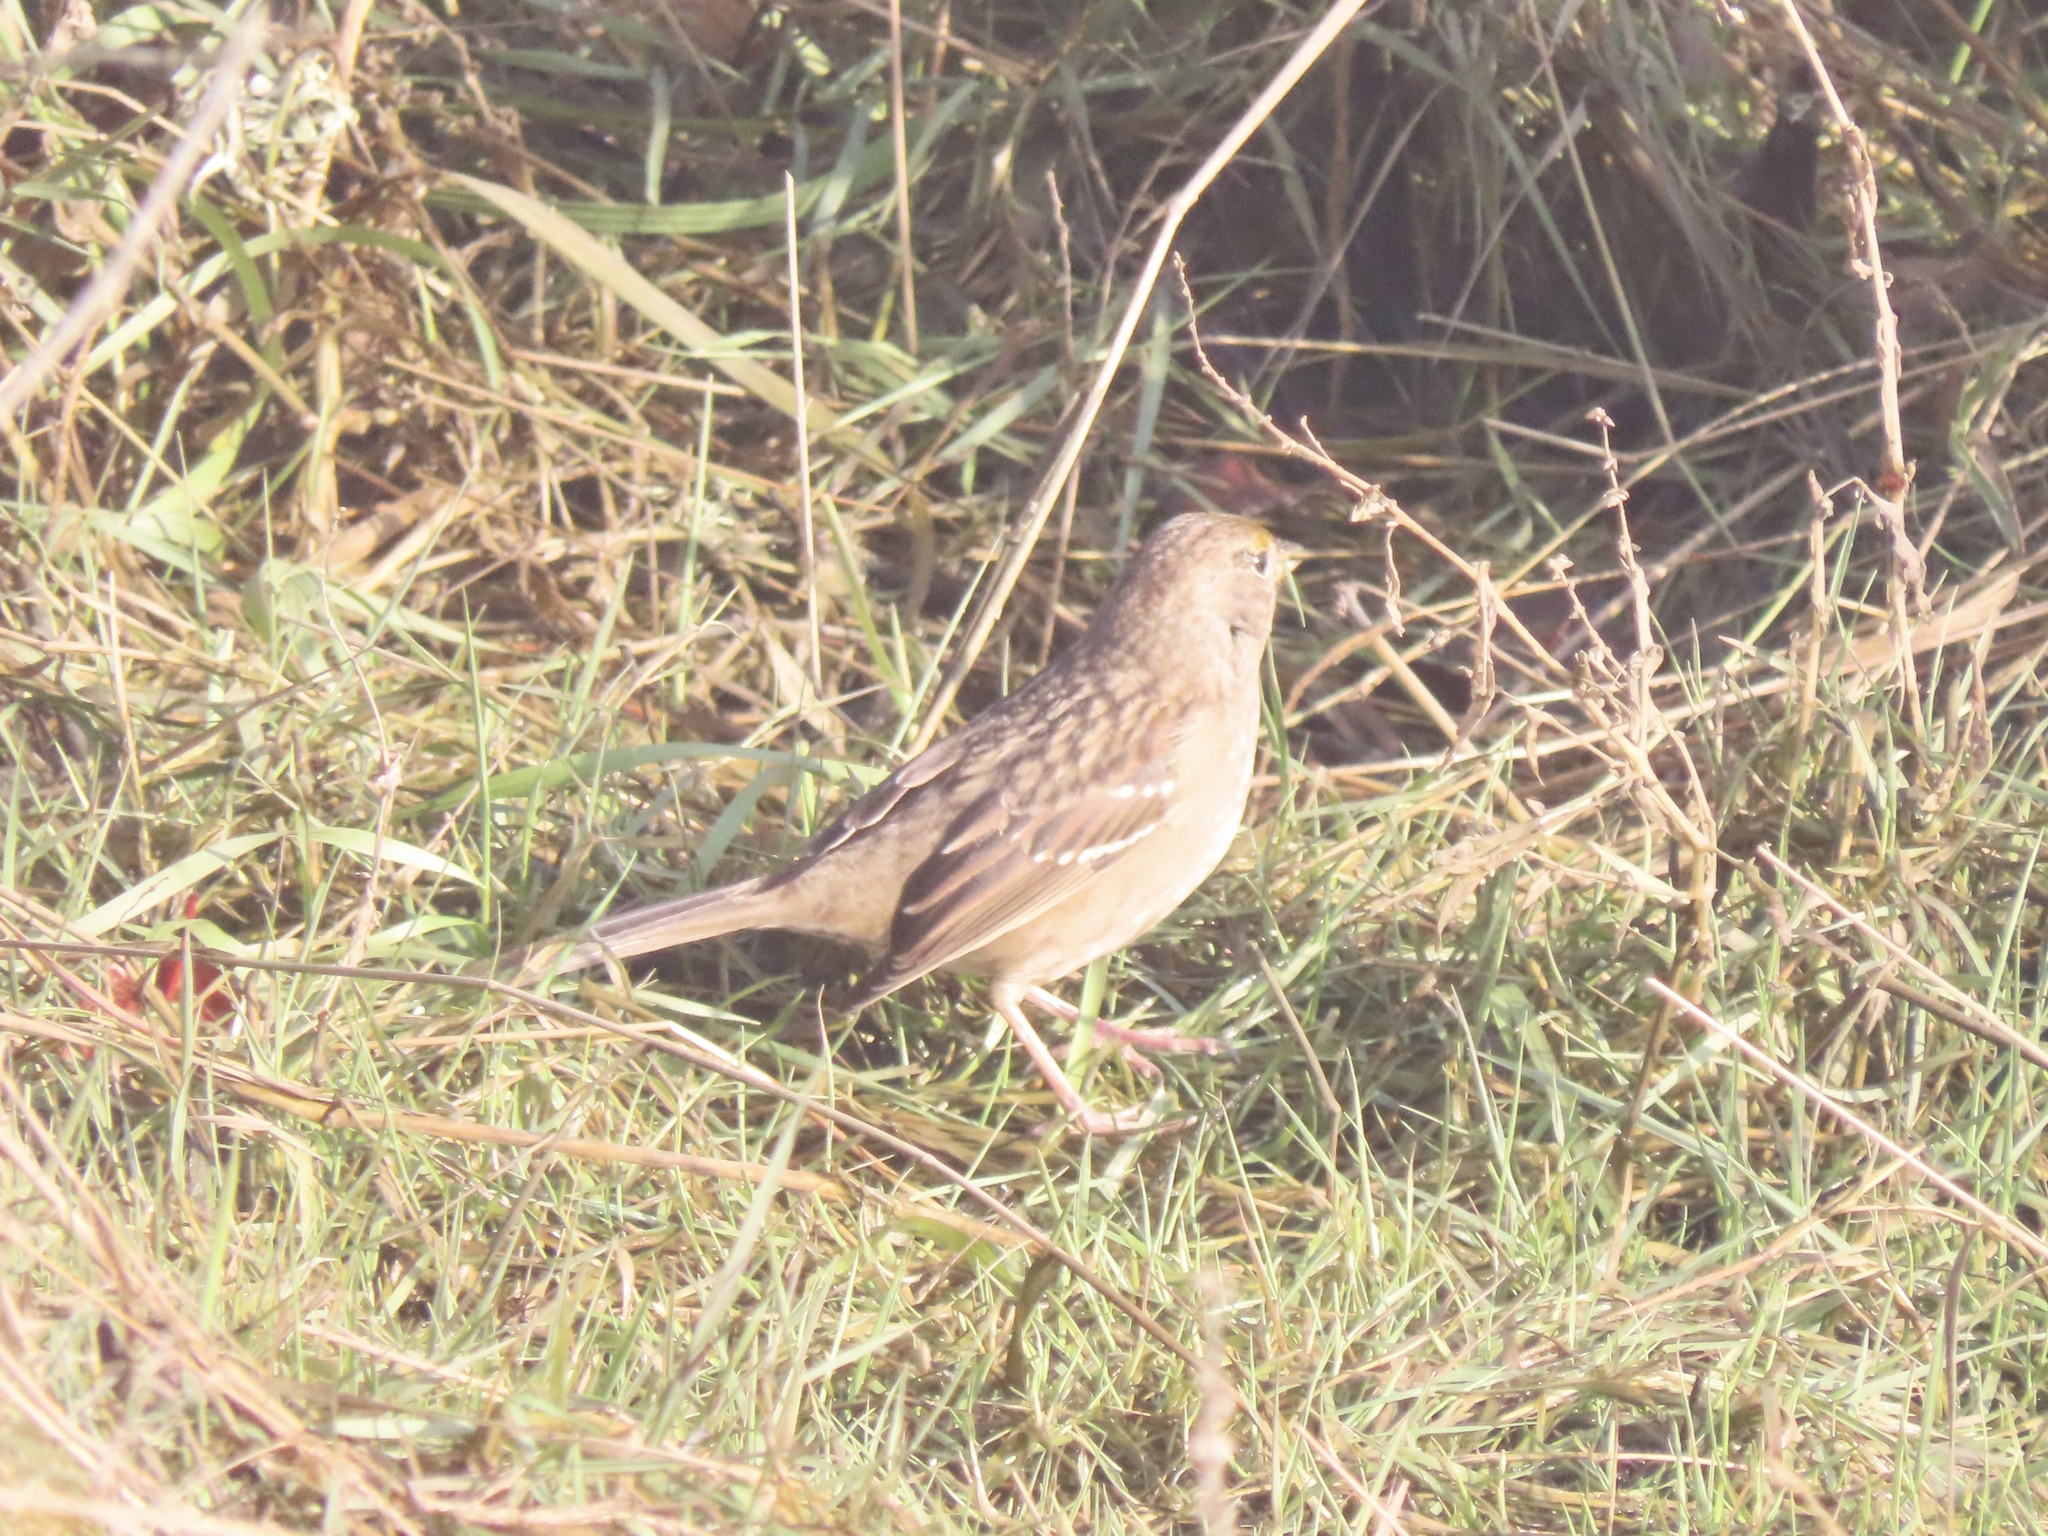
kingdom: Animalia
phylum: Chordata
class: Aves
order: Passeriformes
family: Passerellidae
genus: Zonotrichia
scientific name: Zonotrichia atricapilla
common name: Golden-crowned sparrow
